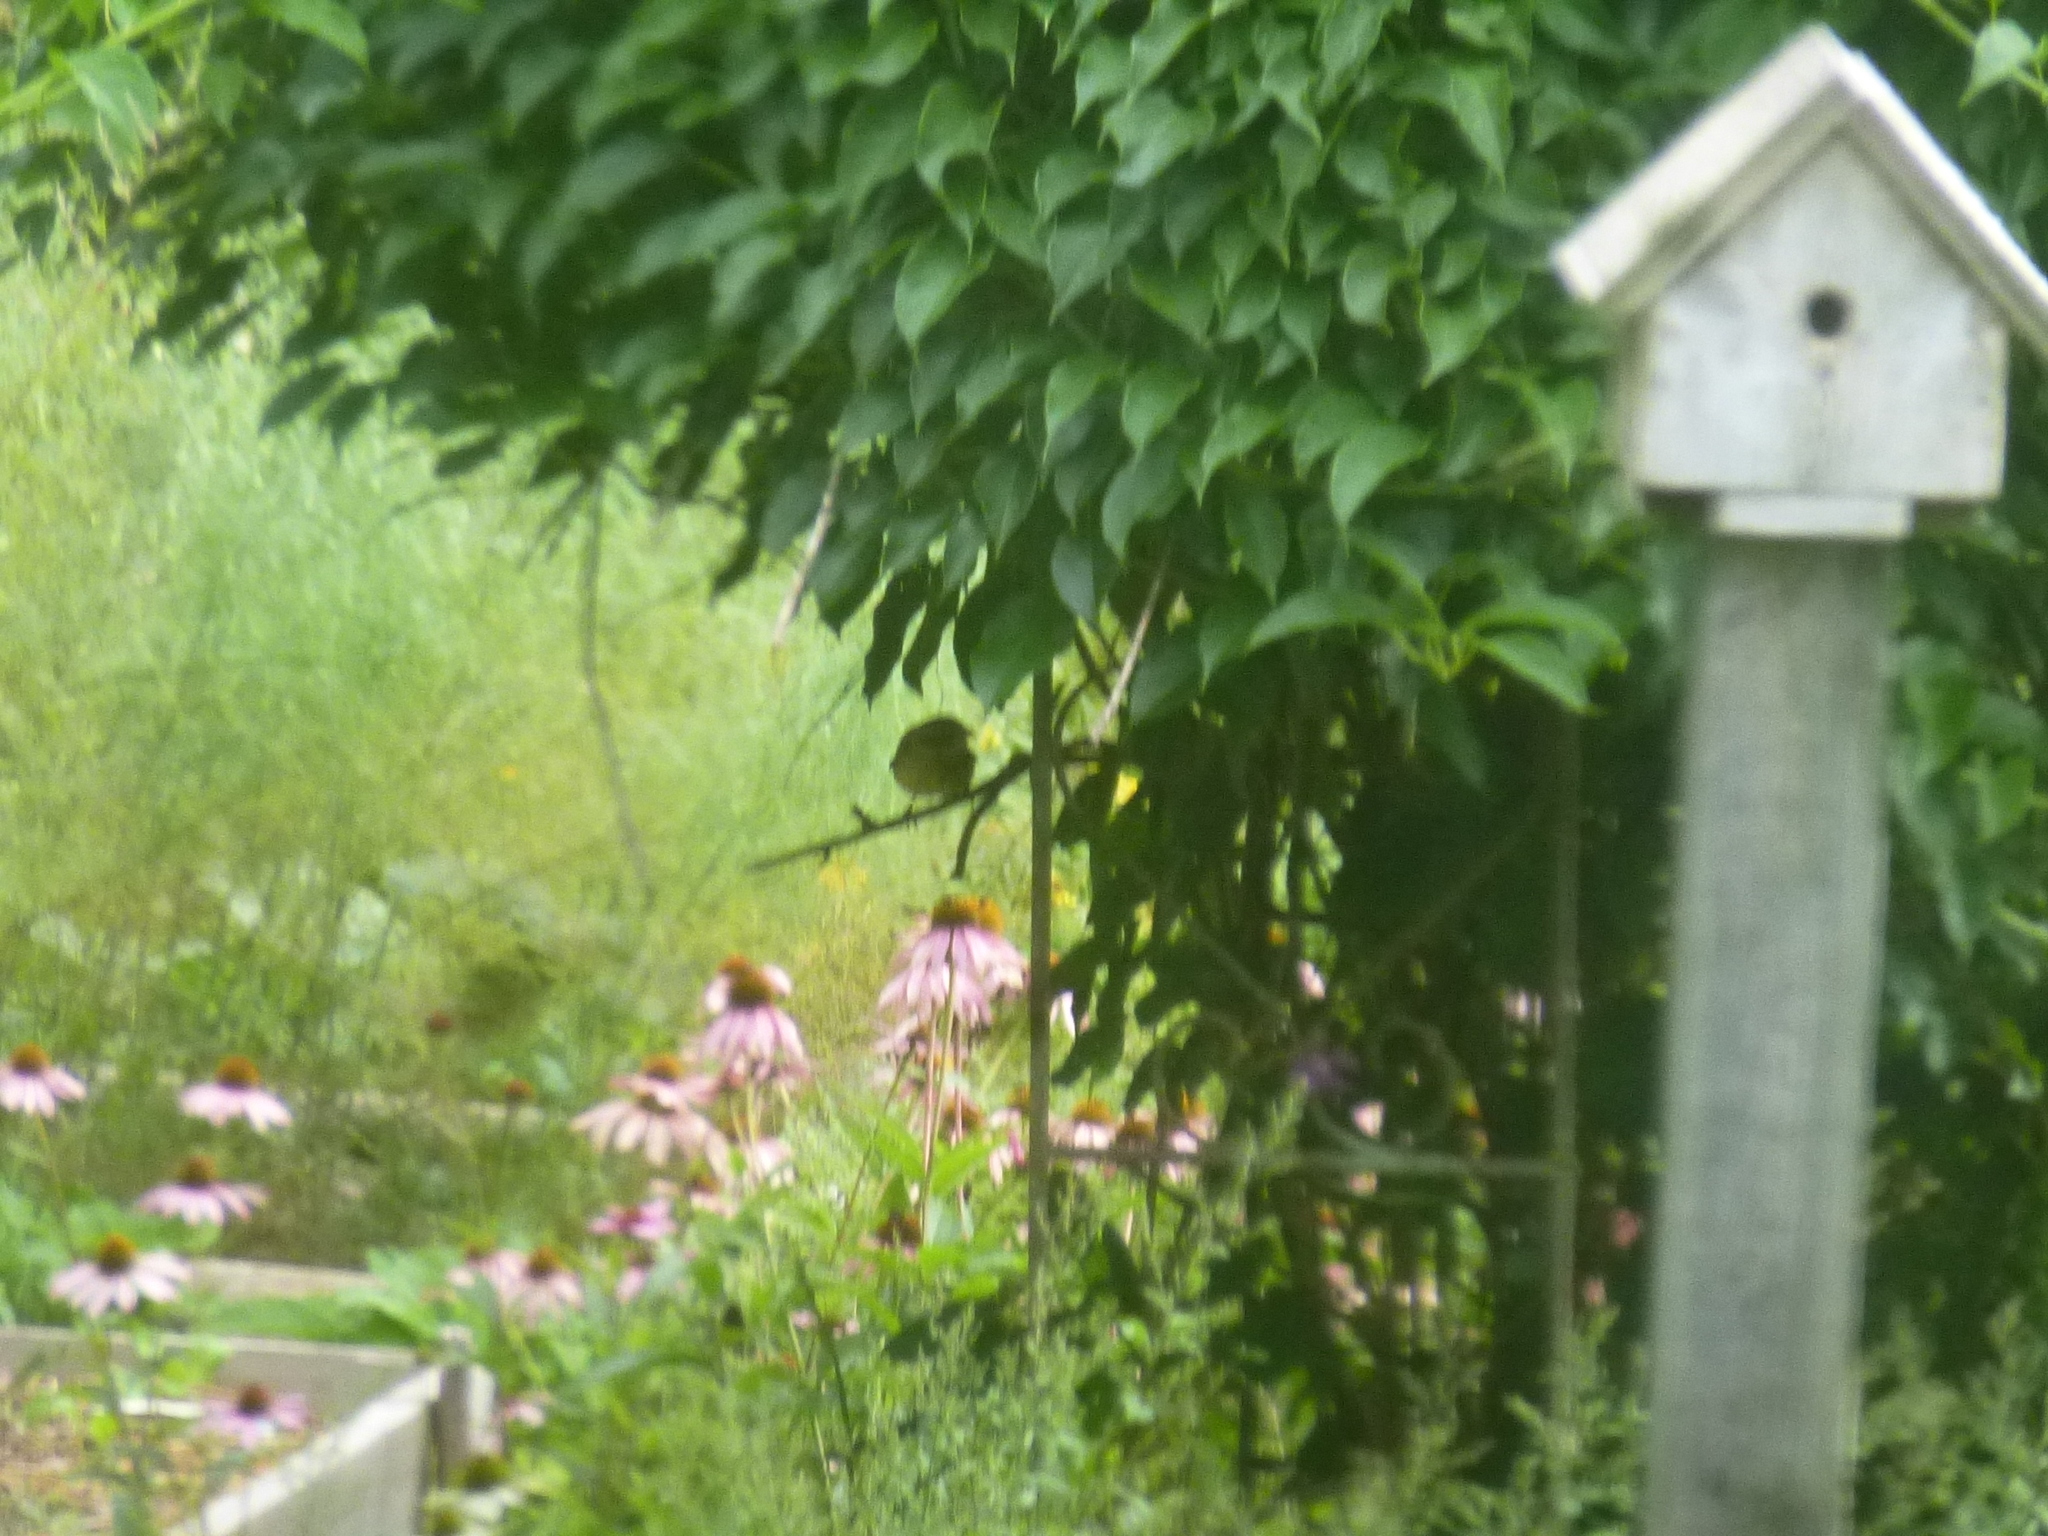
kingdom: Animalia
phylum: Chordata
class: Aves
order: Passeriformes
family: Cardinalidae
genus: Pheucticus
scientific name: Pheucticus ludovicianus
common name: Rose-breasted grosbeak
